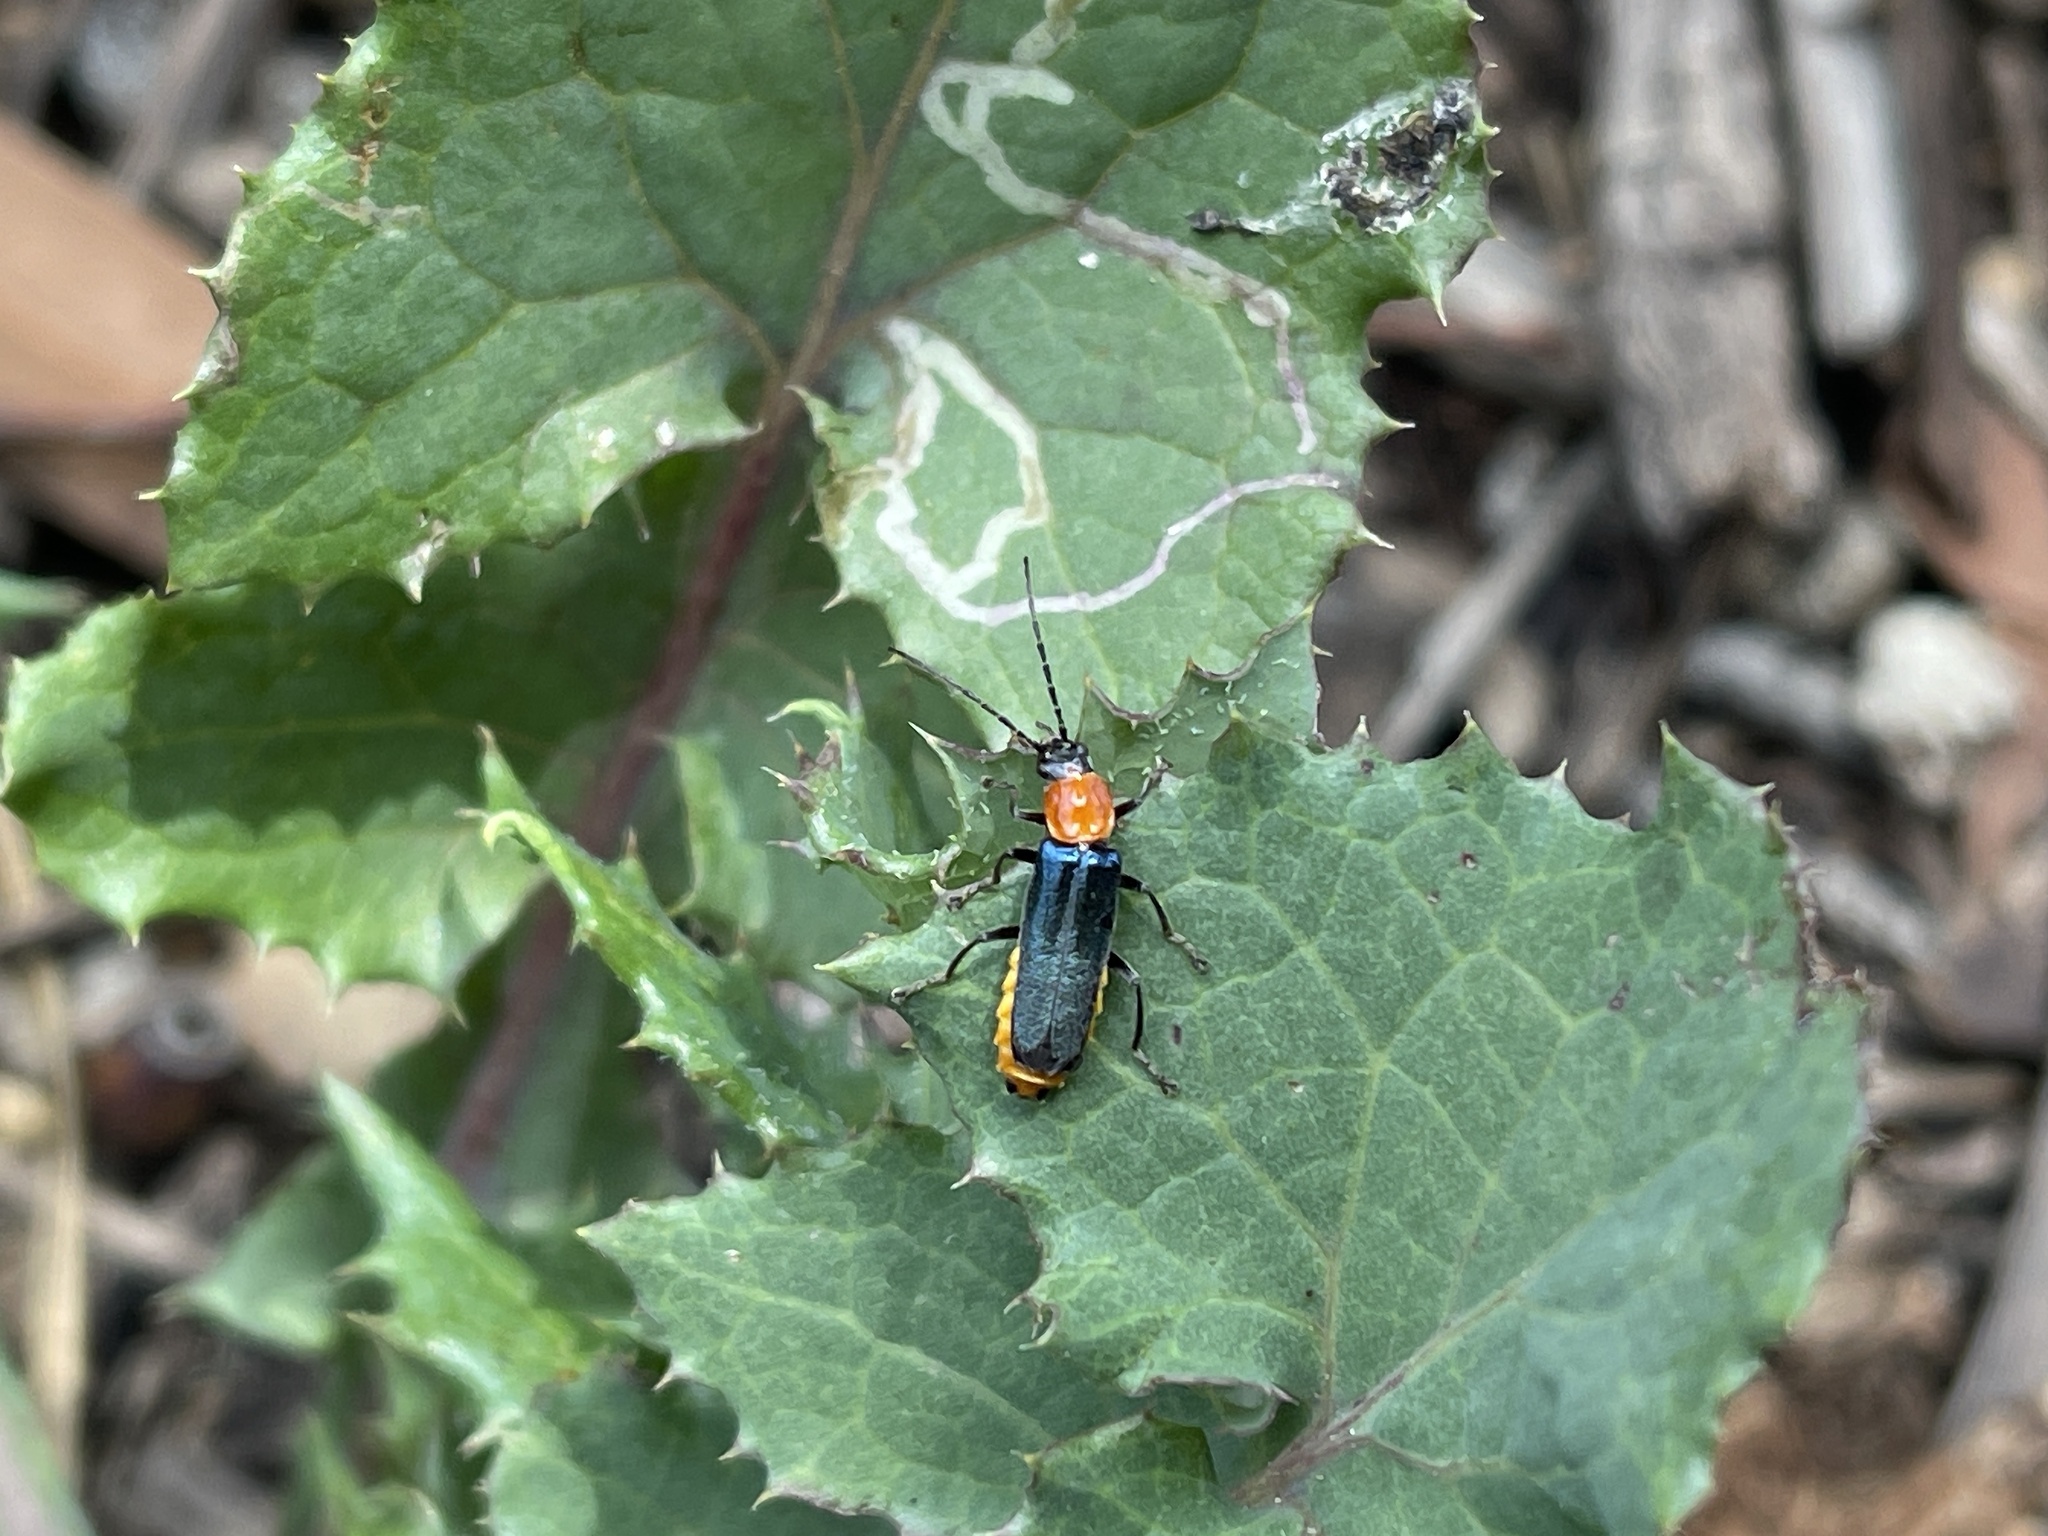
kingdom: Animalia
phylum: Arthropoda
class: Insecta
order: Coleoptera
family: Cantharidae
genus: Chauliognathus
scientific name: Chauliognathus
